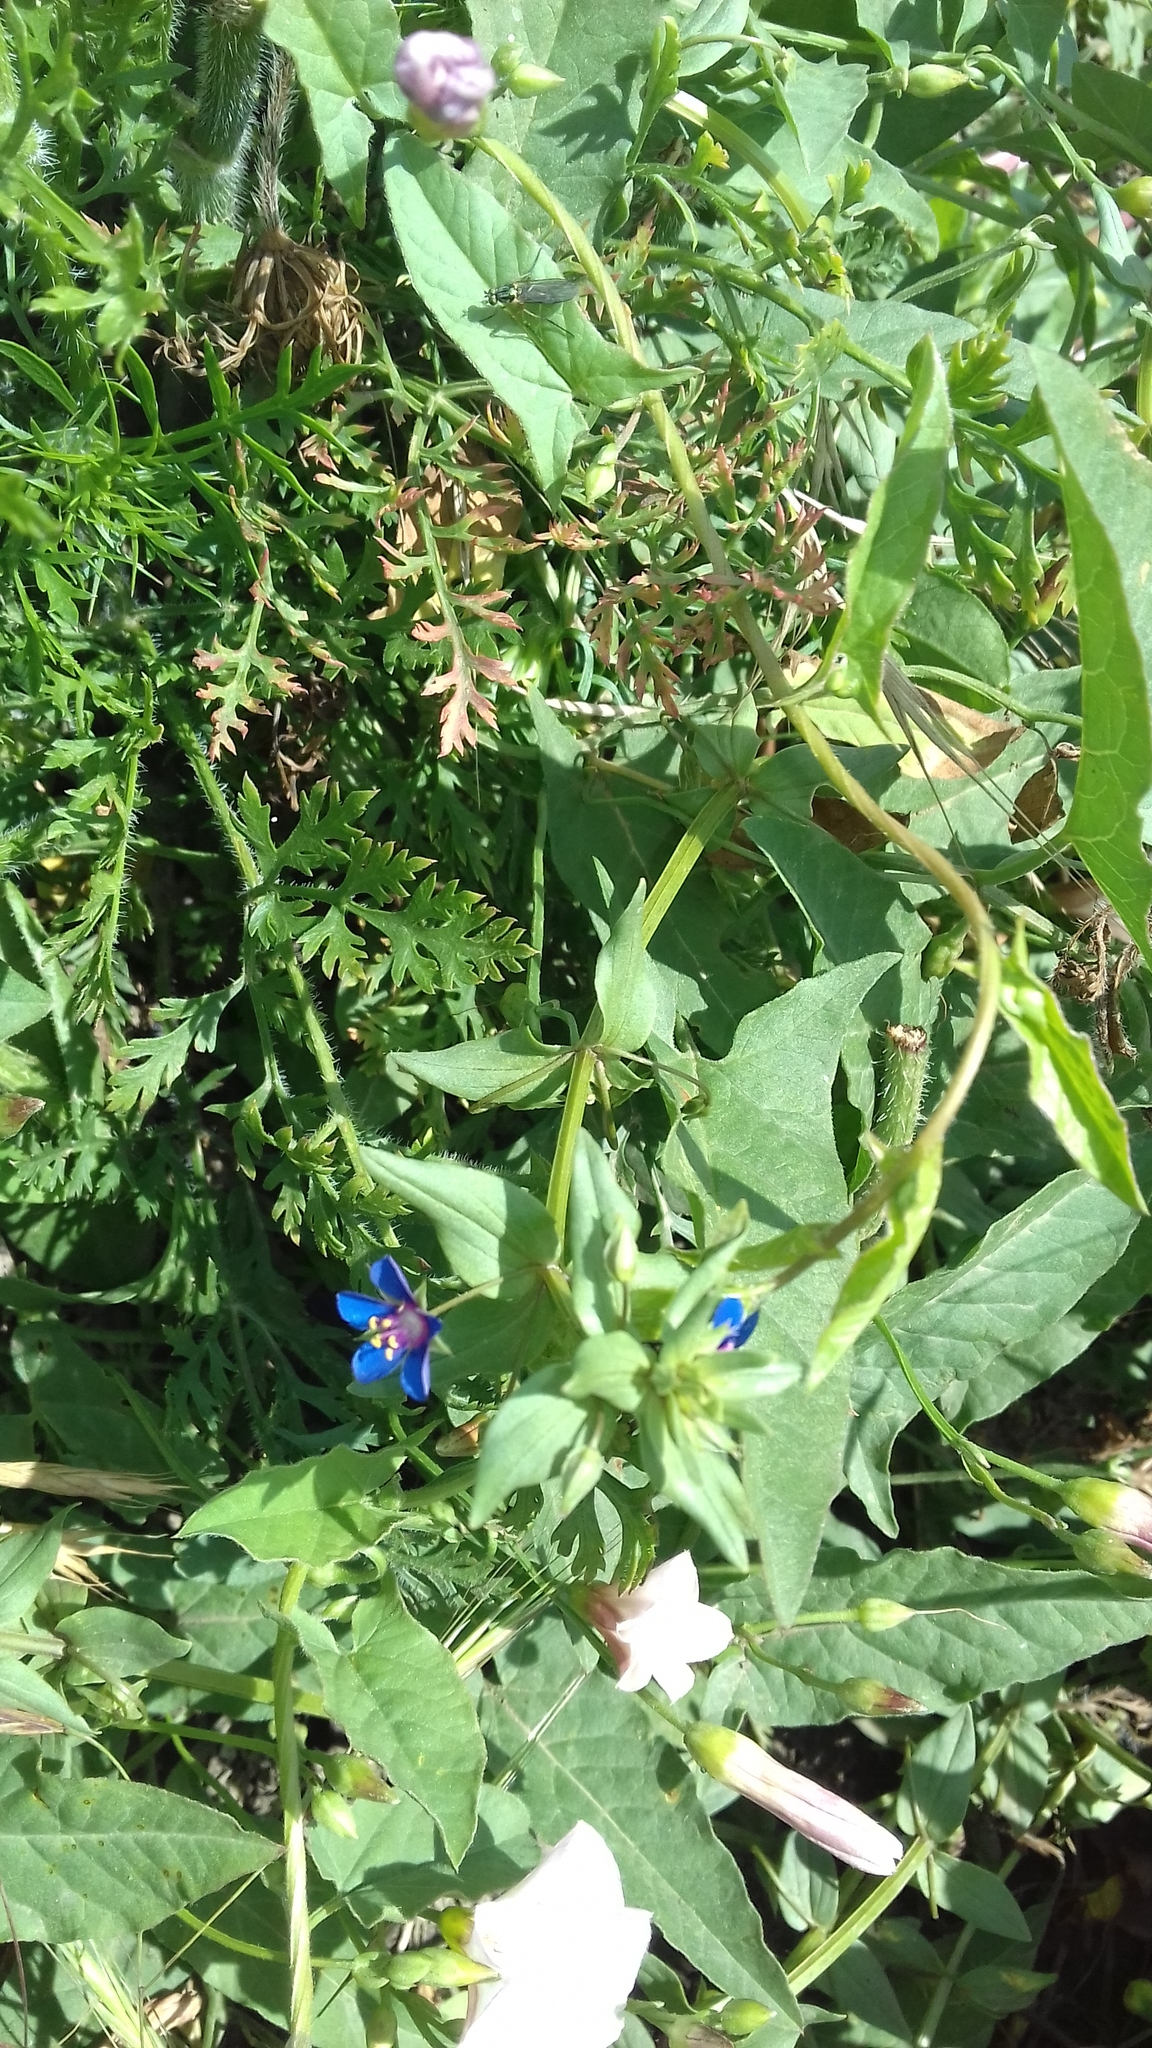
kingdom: Plantae
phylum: Tracheophyta
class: Magnoliopsida
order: Ericales
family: Primulaceae
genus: Lysimachia
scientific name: Lysimachia foemina
